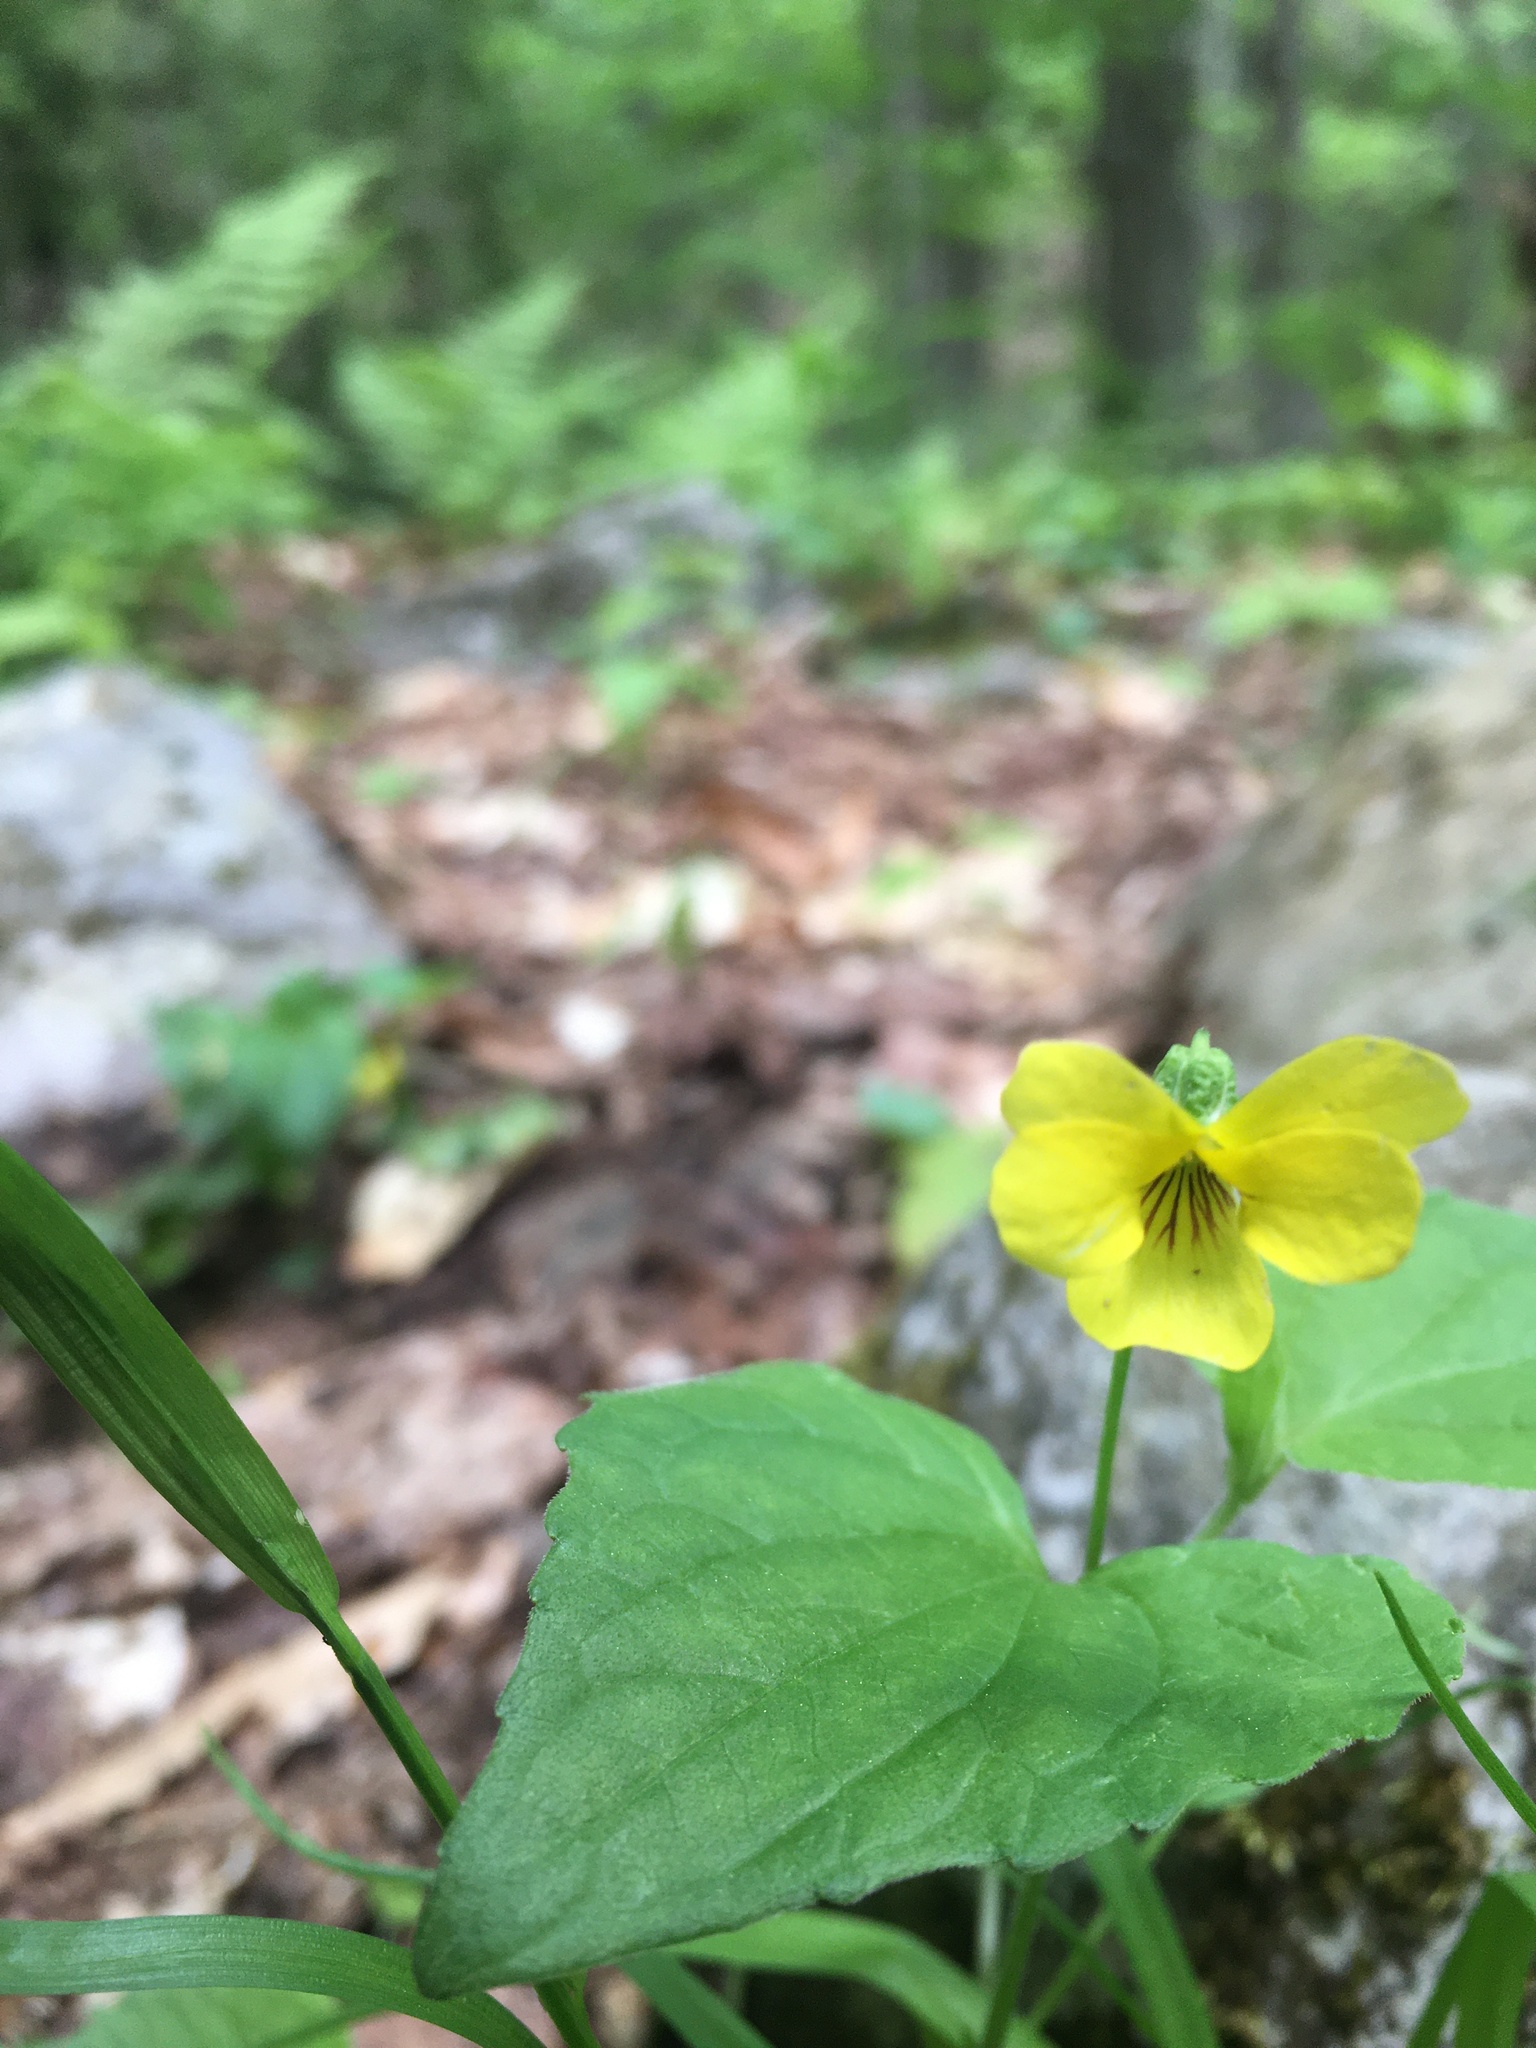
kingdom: Plantae
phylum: Tracheophyta
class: Magnoliopsida
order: Malpighiales
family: Violaceae
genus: Viola
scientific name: Viola eriocarpa
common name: Smooth yellow violet
